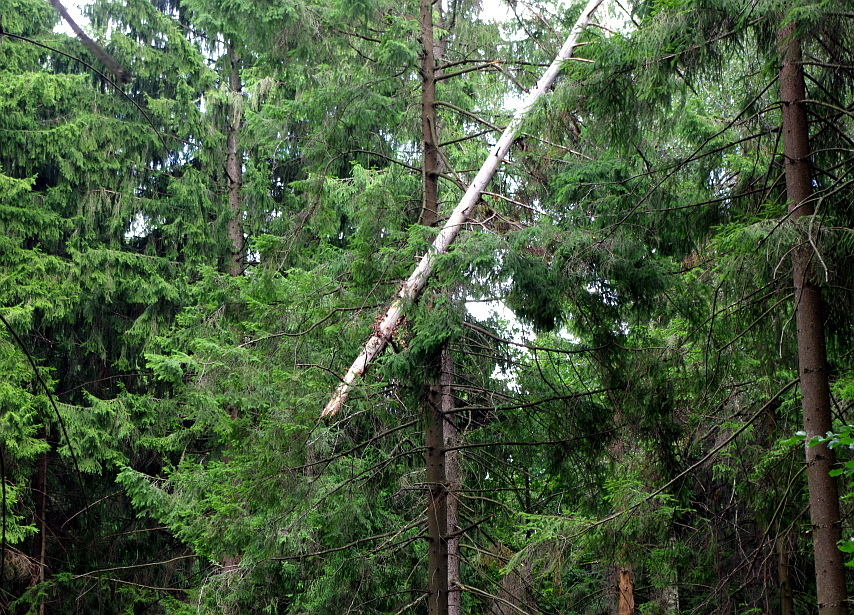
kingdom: Plantae
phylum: Tracheophyta
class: Pinopsida
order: Pinales
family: Pinaceae
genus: Picea
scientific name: Picea abies
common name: Norway spruce
